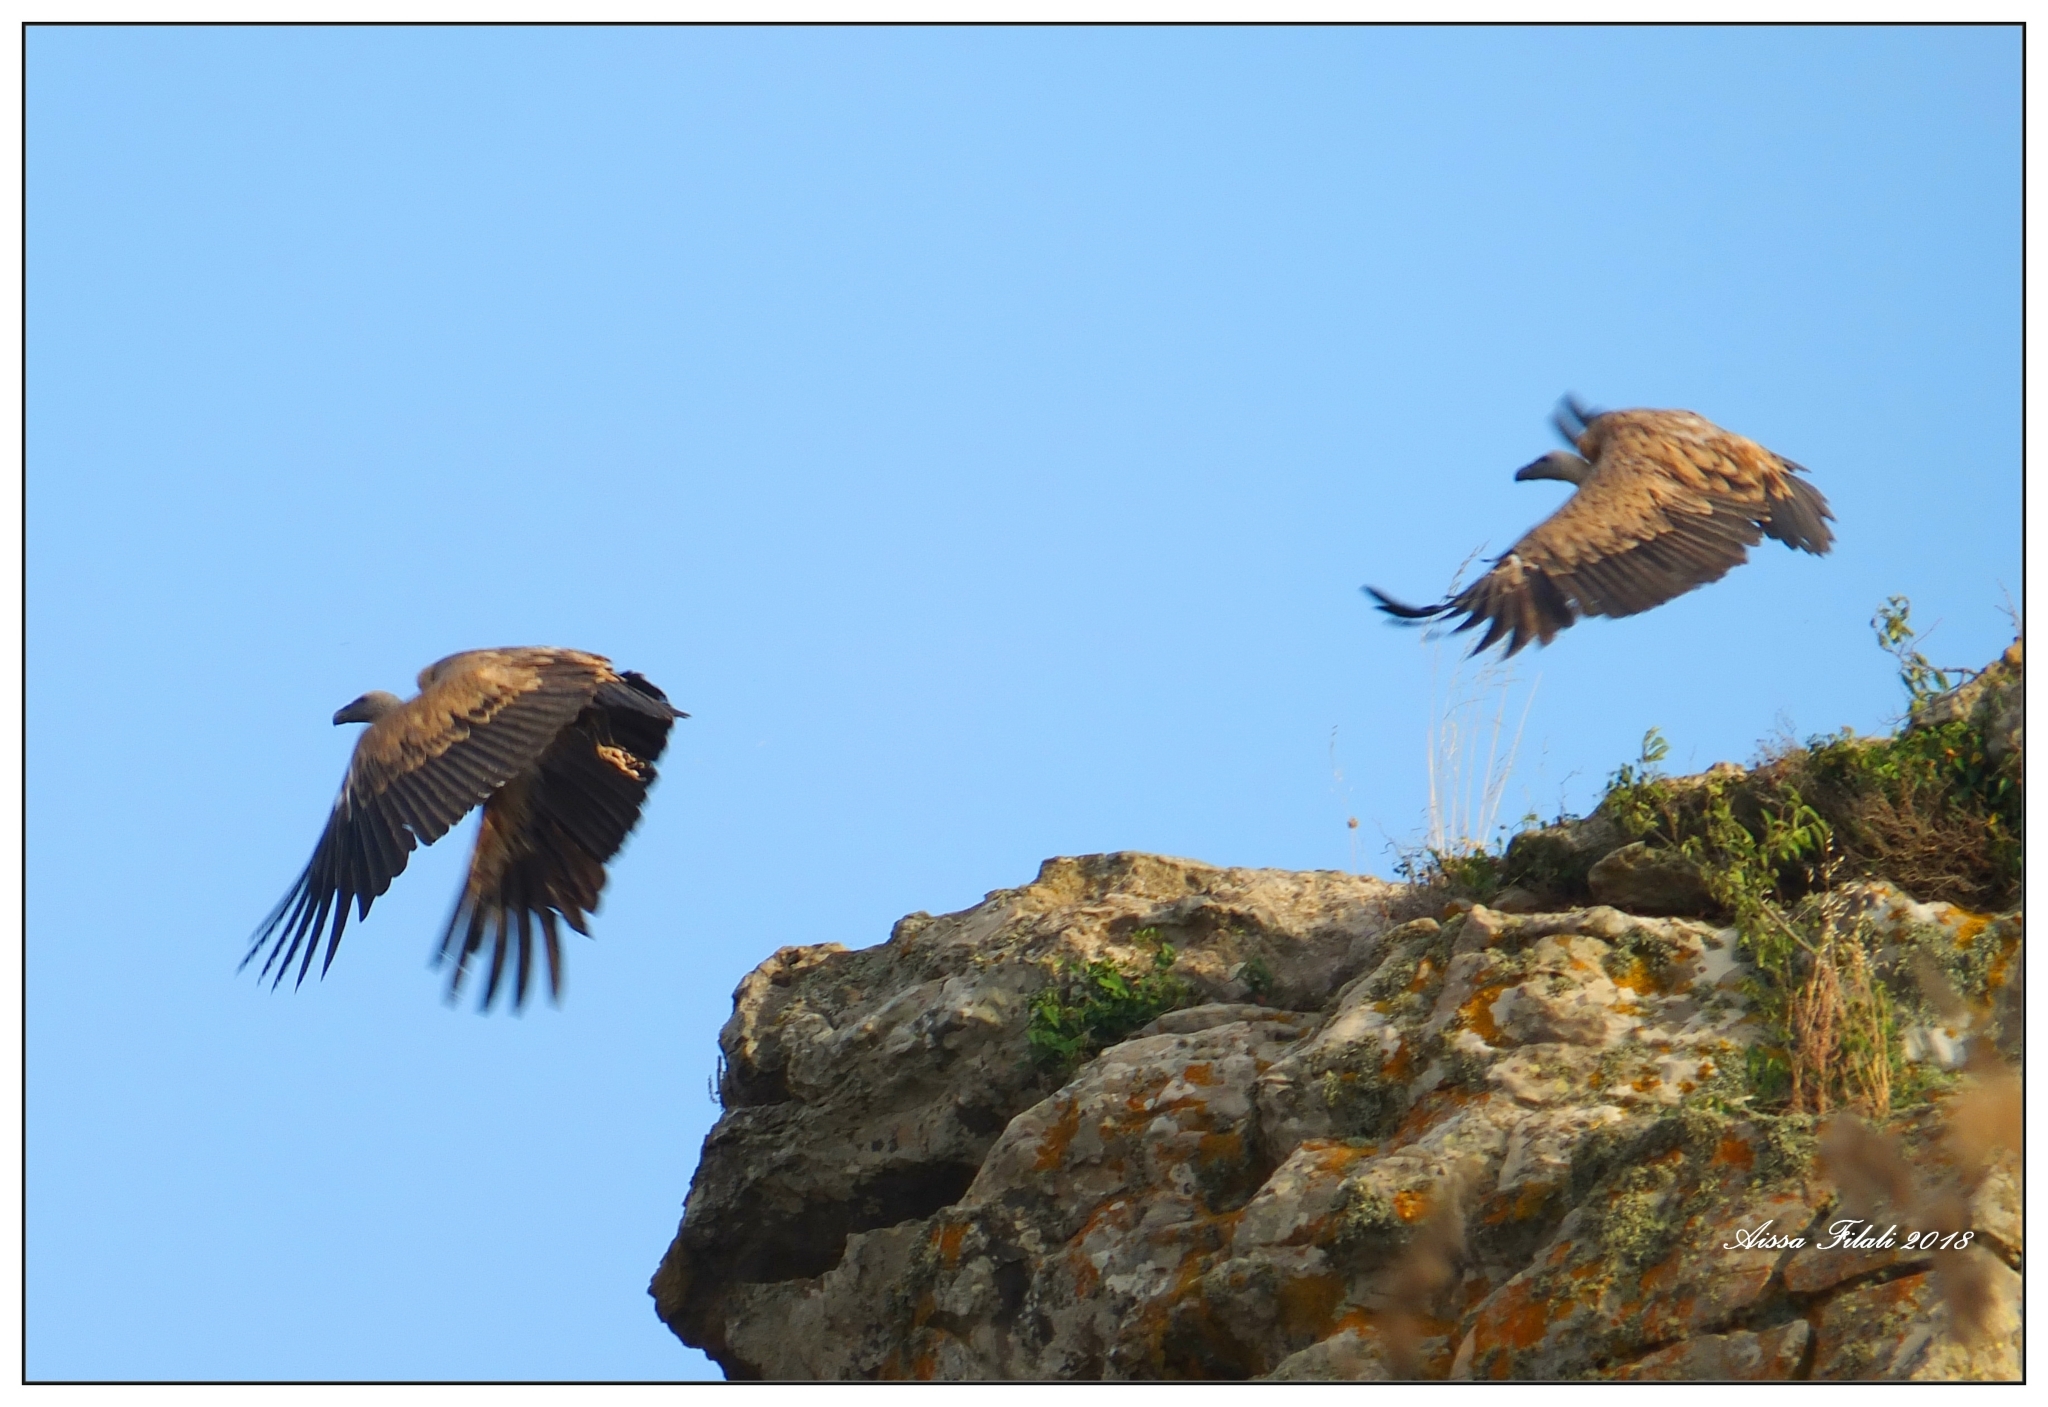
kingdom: Animalia
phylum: Chordata
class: Aves
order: Accipitriformes
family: Accipitridae
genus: Gyps
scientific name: Gyps fulvus
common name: Griffon vulture
